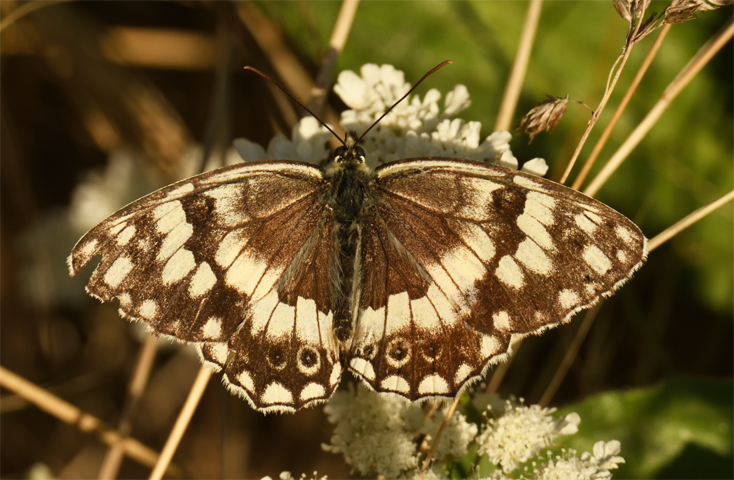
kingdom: Animalia
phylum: Arthropoda
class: Insecta
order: Lepidoptera
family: Nymphalidae
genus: Melanargia
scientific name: Melanargia larissa
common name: Balkan marbled white
